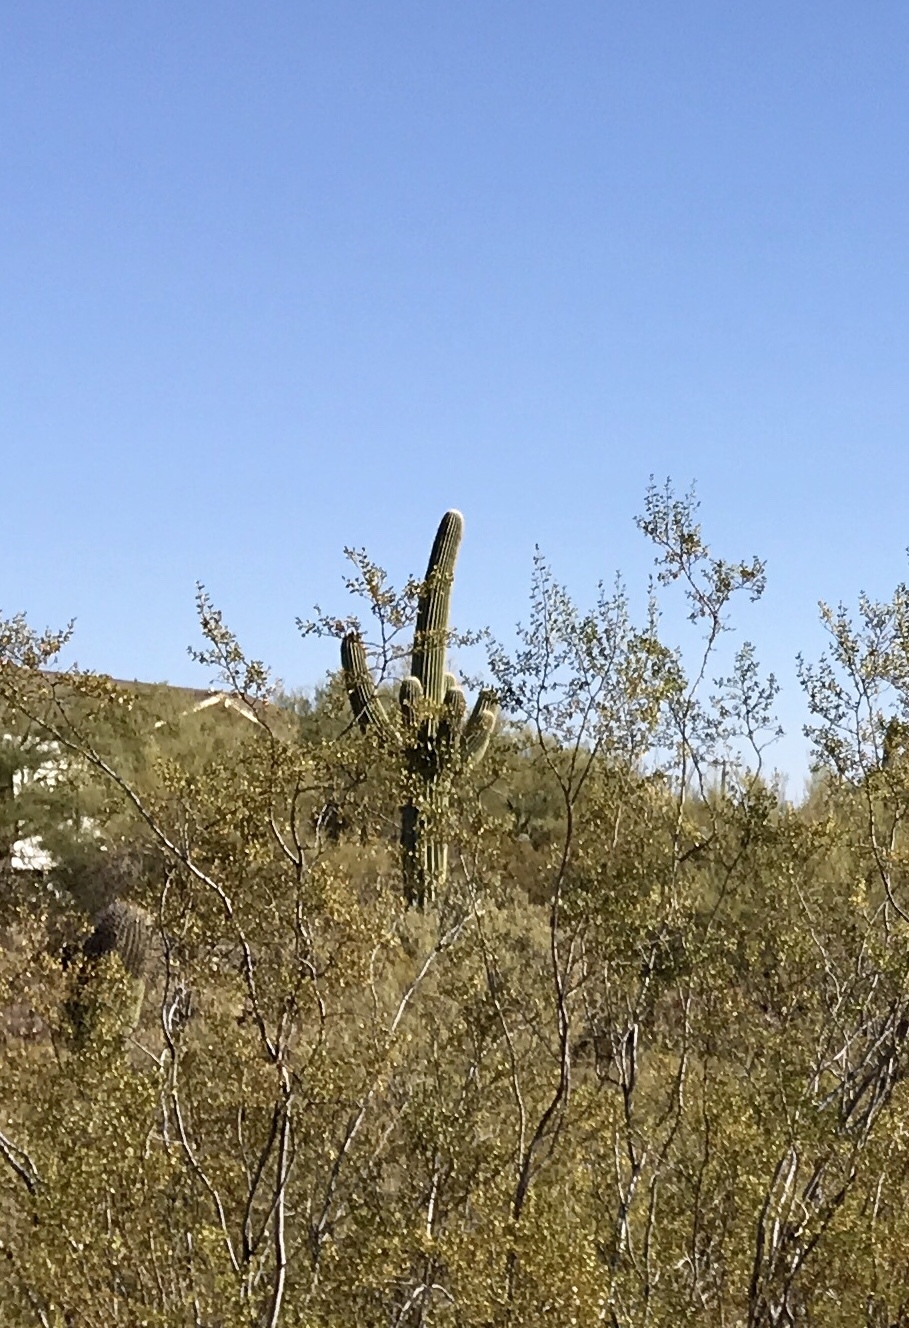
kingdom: Plantae
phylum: Tracheophyta
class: Magnoliopsida
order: Caryophyllales
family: Cactaceae
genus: Carnegiea
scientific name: Carnegiea gigantea
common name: Saguaro
